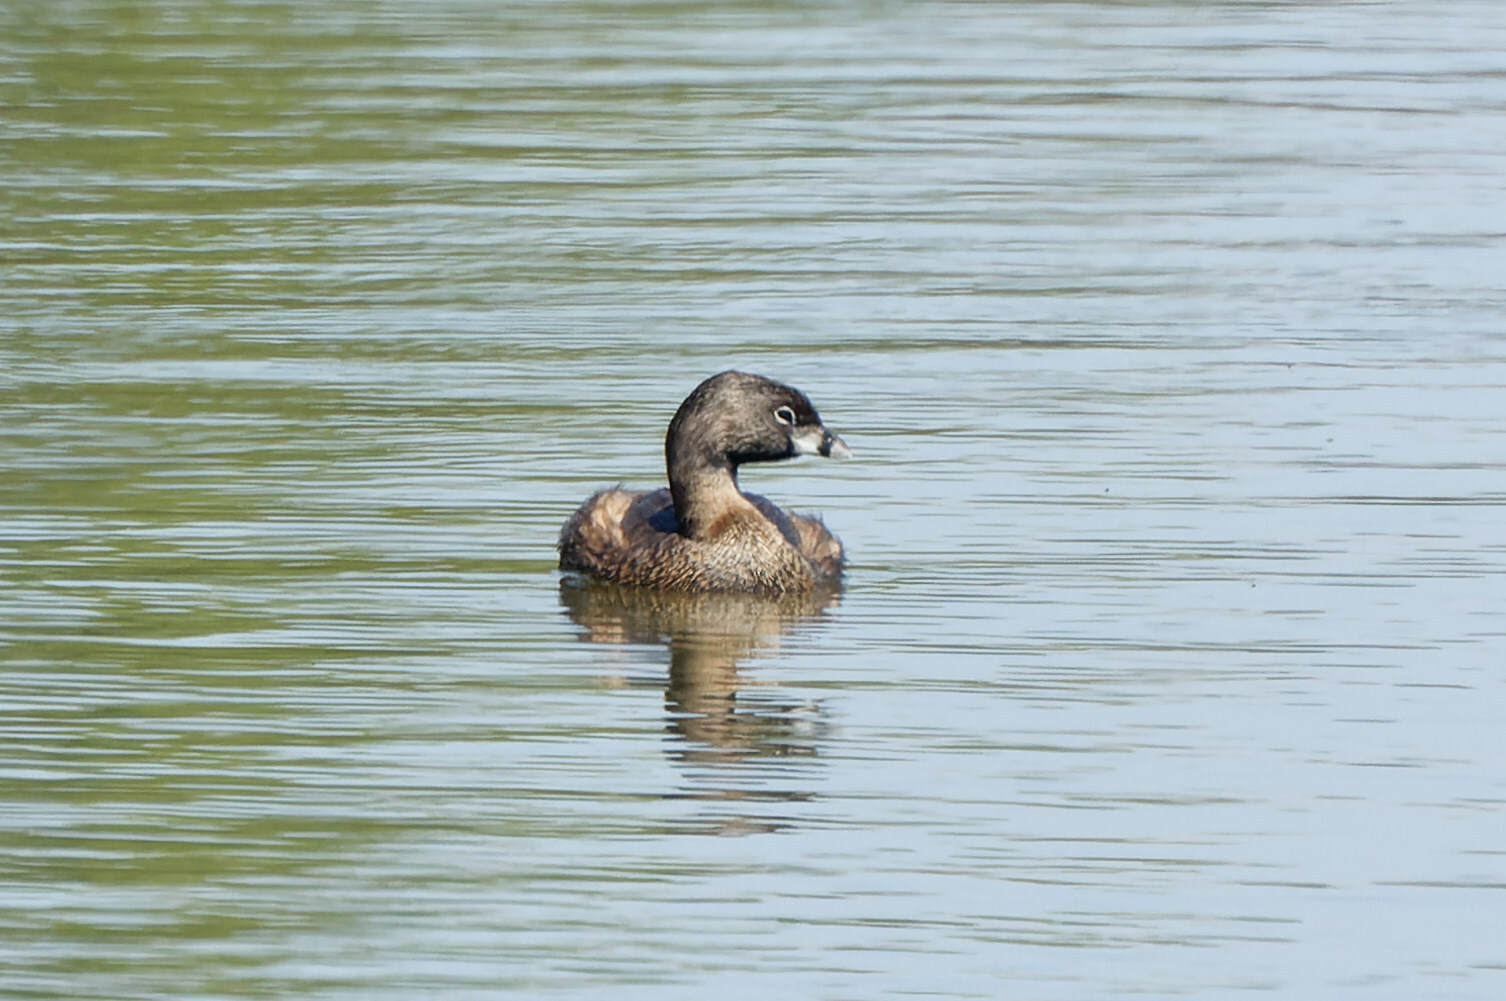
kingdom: Animalia
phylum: Chordata
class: Aves
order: Podicipediformes
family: Podicipedidae
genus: Podilymbus
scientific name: Podilymbus podiceps
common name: Pied-billed grebe
